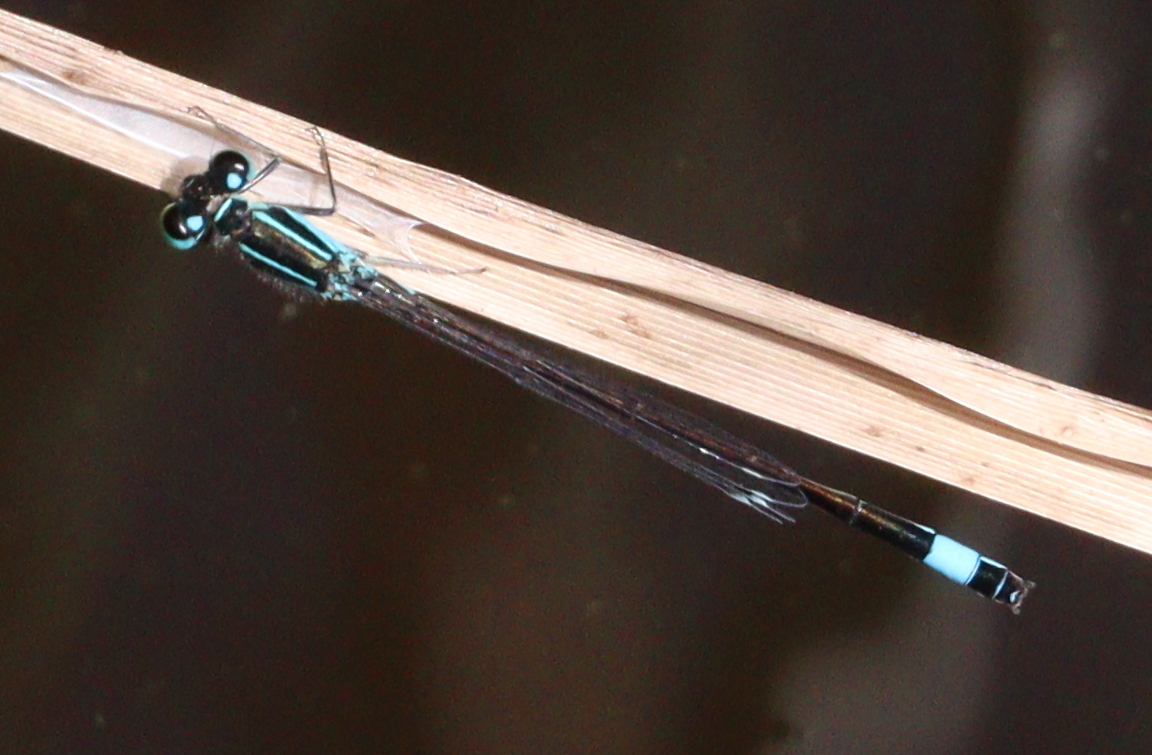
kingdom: Animalia
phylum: Arthropoda
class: Insecta
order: Odonata
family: Coenagrionidae
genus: Ischnura
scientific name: Ischnura elegans
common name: Blue-tailed damselfly
